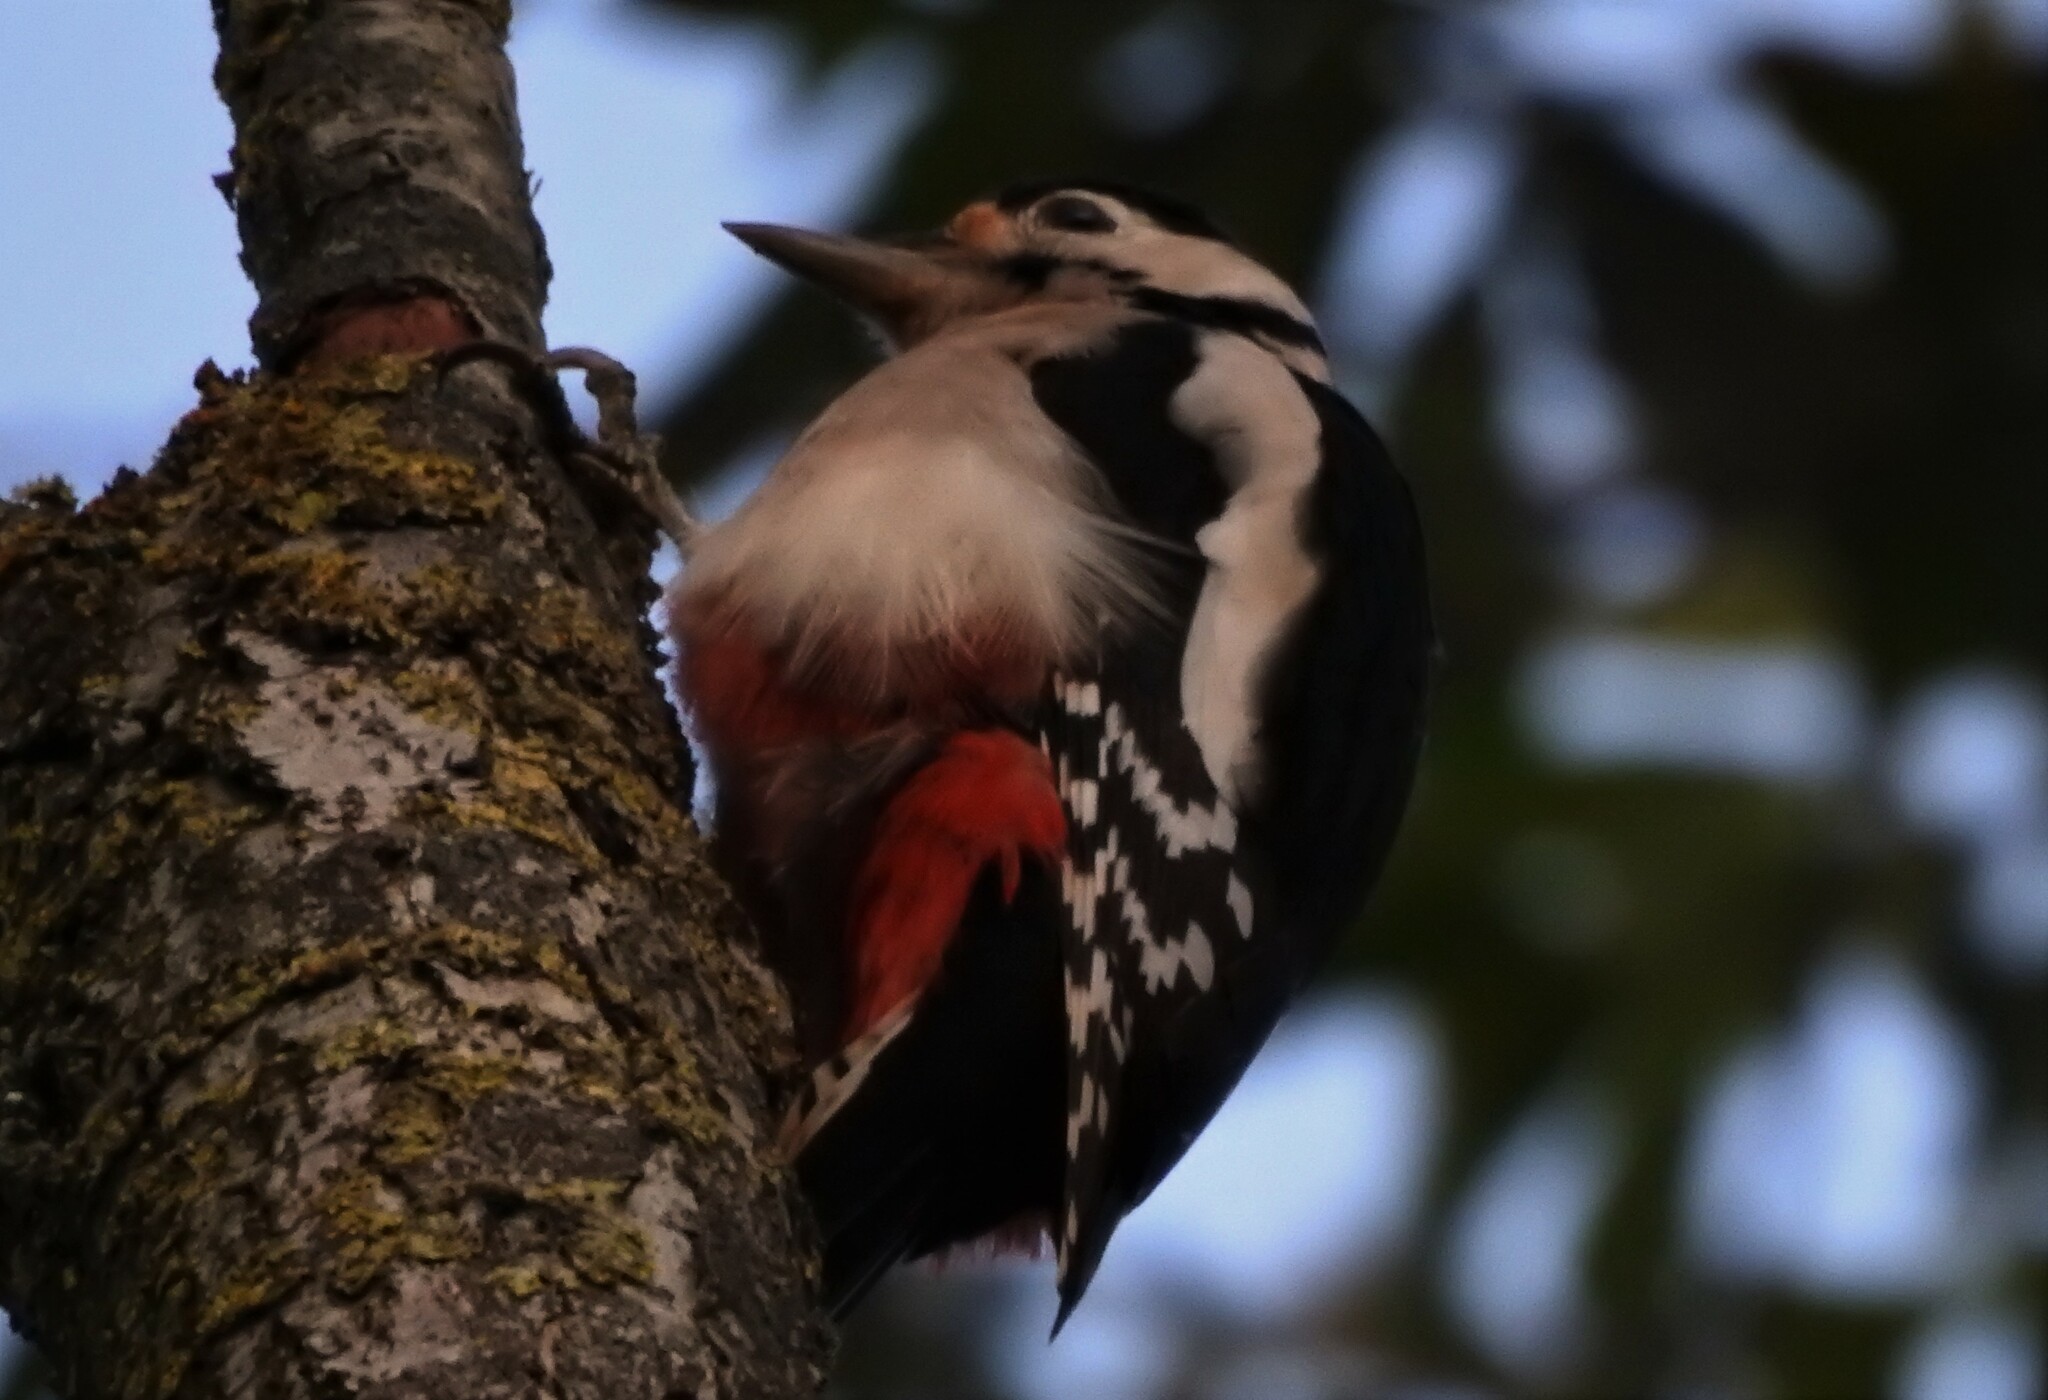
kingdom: Animalia
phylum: Chordata
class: Aves
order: Piciformes
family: Picidae
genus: Dendrocopos
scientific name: Dendrocopos major
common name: Great spotted woodpecker
